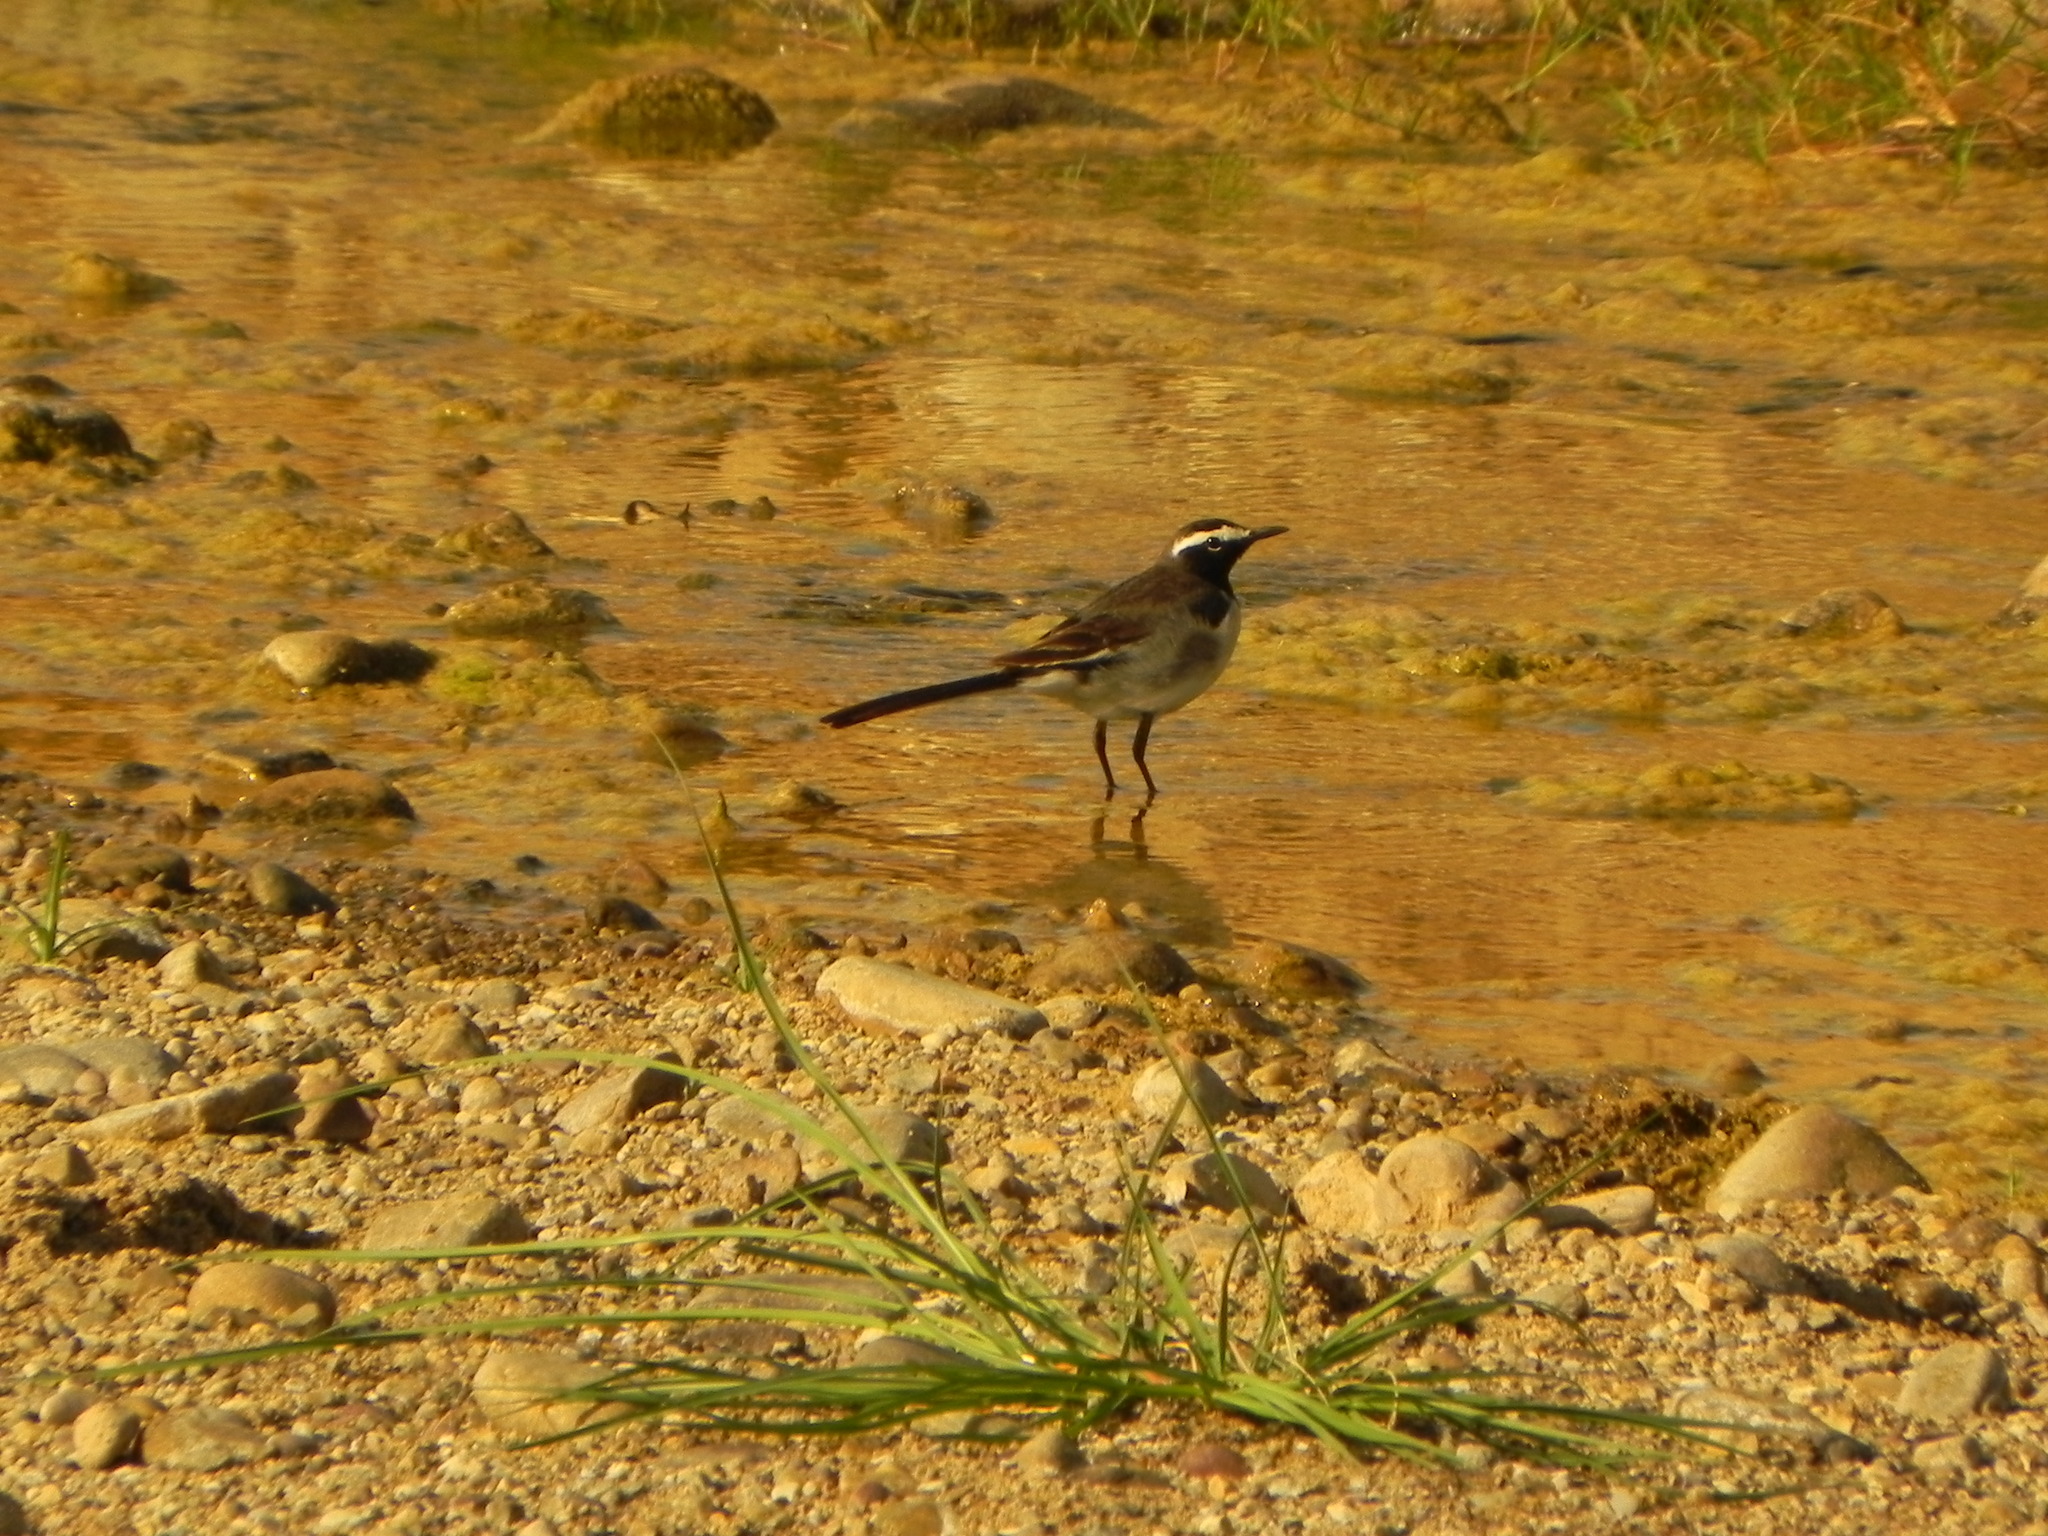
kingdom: Animalia
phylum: Chordata
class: Aves
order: Passeriformes
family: Motacillidae
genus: Motacilla
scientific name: Motacilla maderaspatensis
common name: White-browed wagtail
